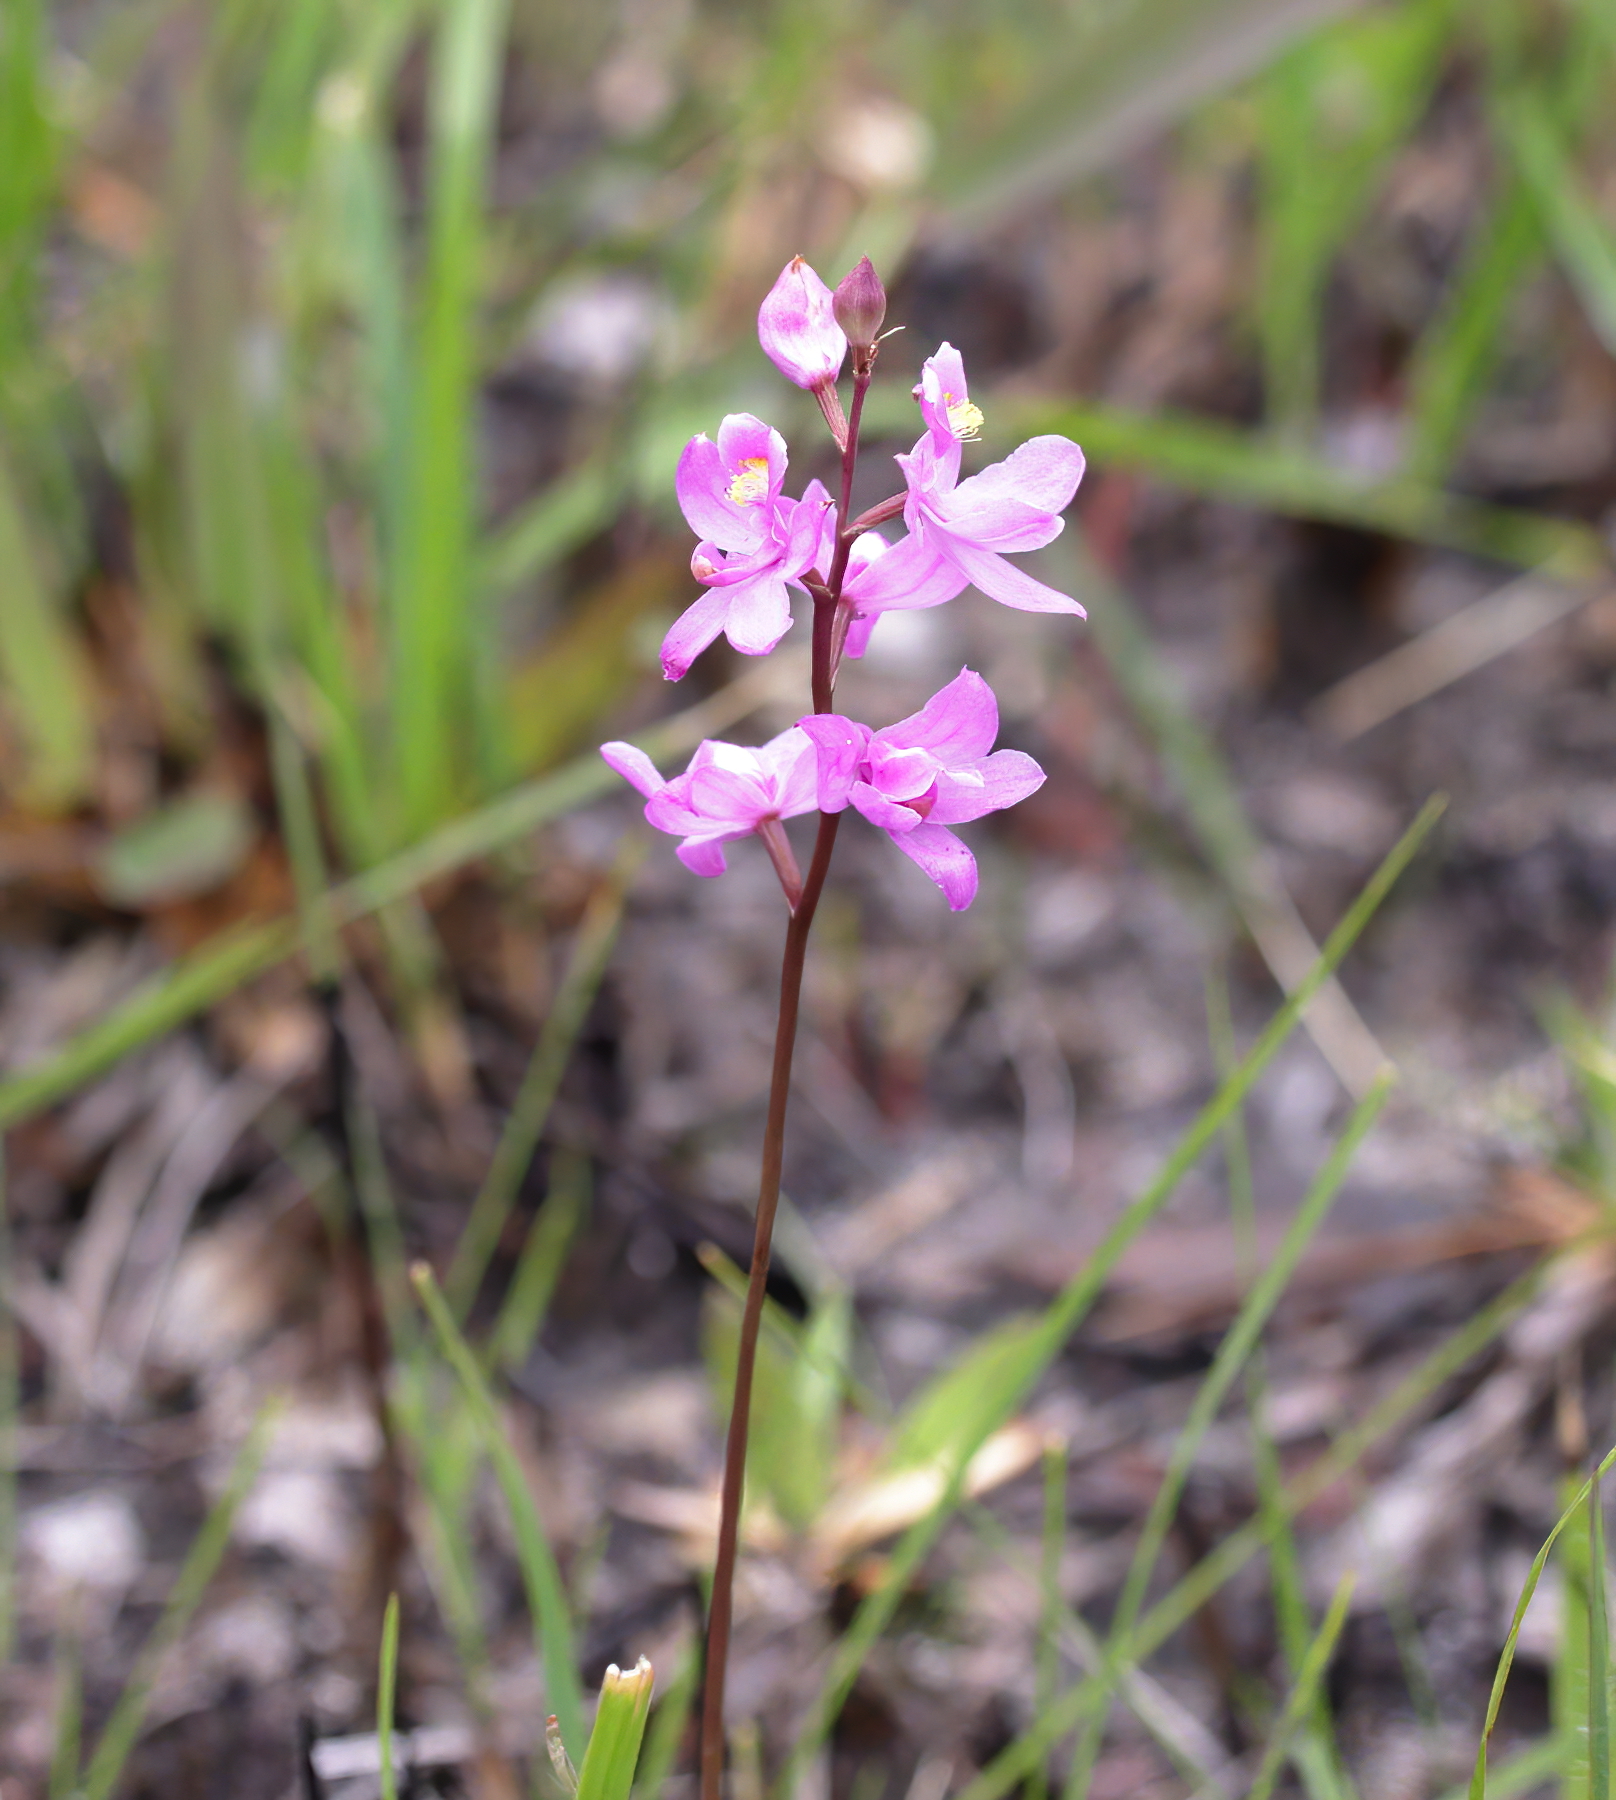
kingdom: Plantae
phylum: Tracheophyta
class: Liliopsida
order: Asparagales
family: Orchidaceae
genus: Calopogon
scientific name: Calopogon multiflorus
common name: Many-flowered grass-pink orchid
